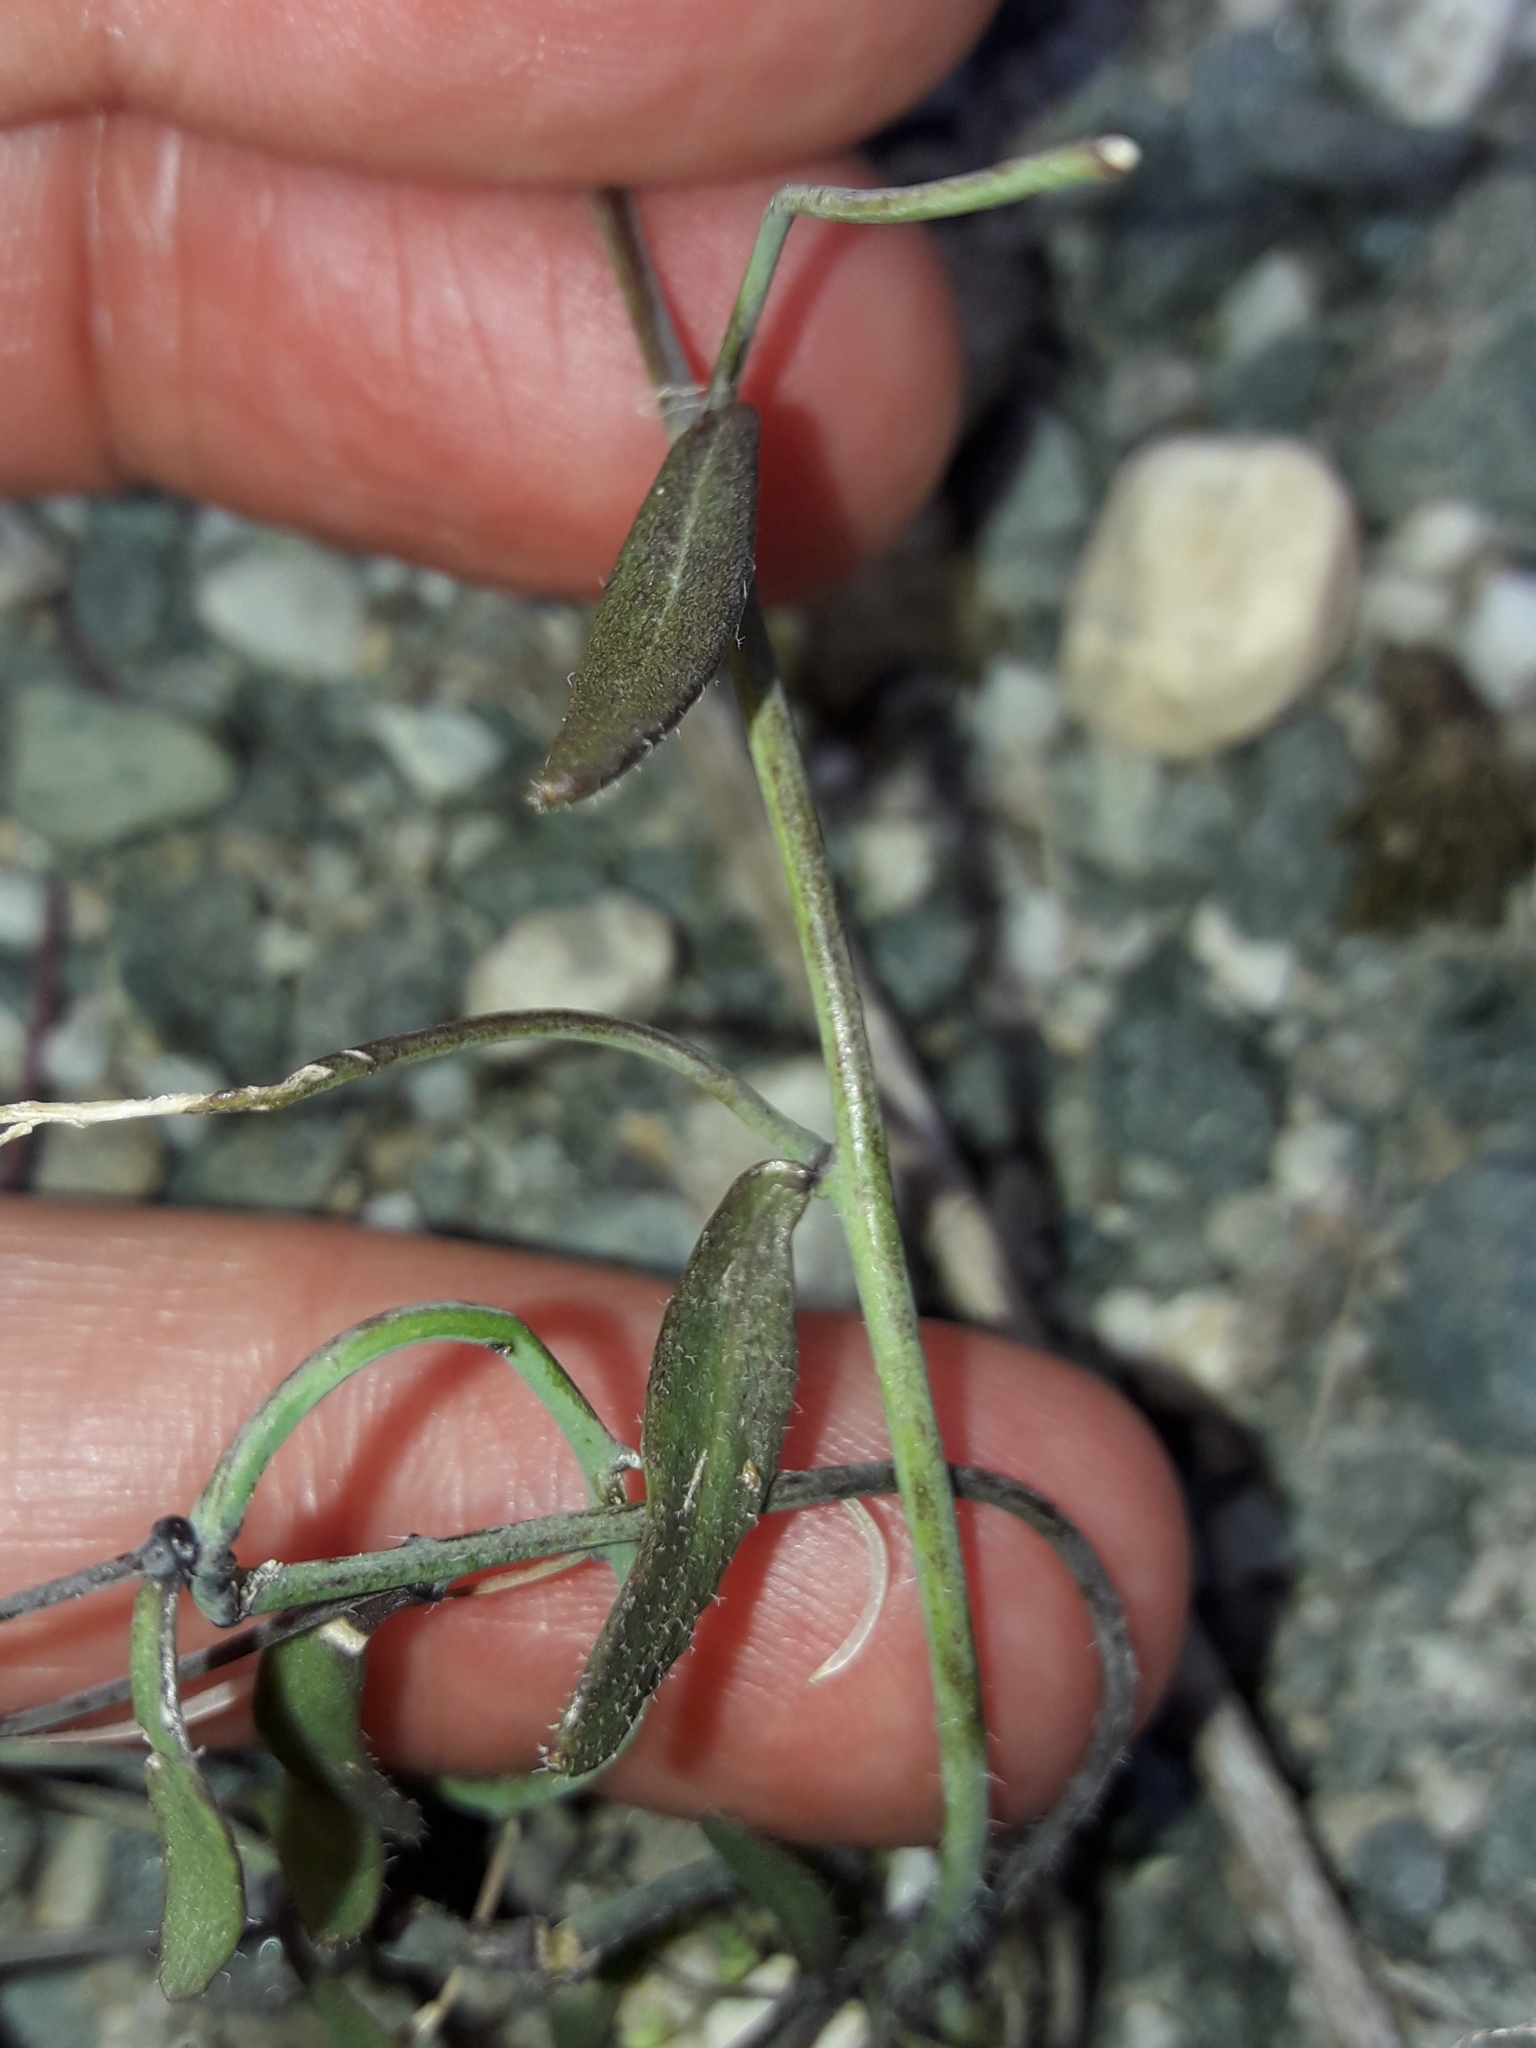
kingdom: Plantae
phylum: Tracheophyta
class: Magnoliopsida
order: Brassicales
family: Brassicaceae
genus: Arabidopsis
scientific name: Arabidopsis thaliana
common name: Thale cress
